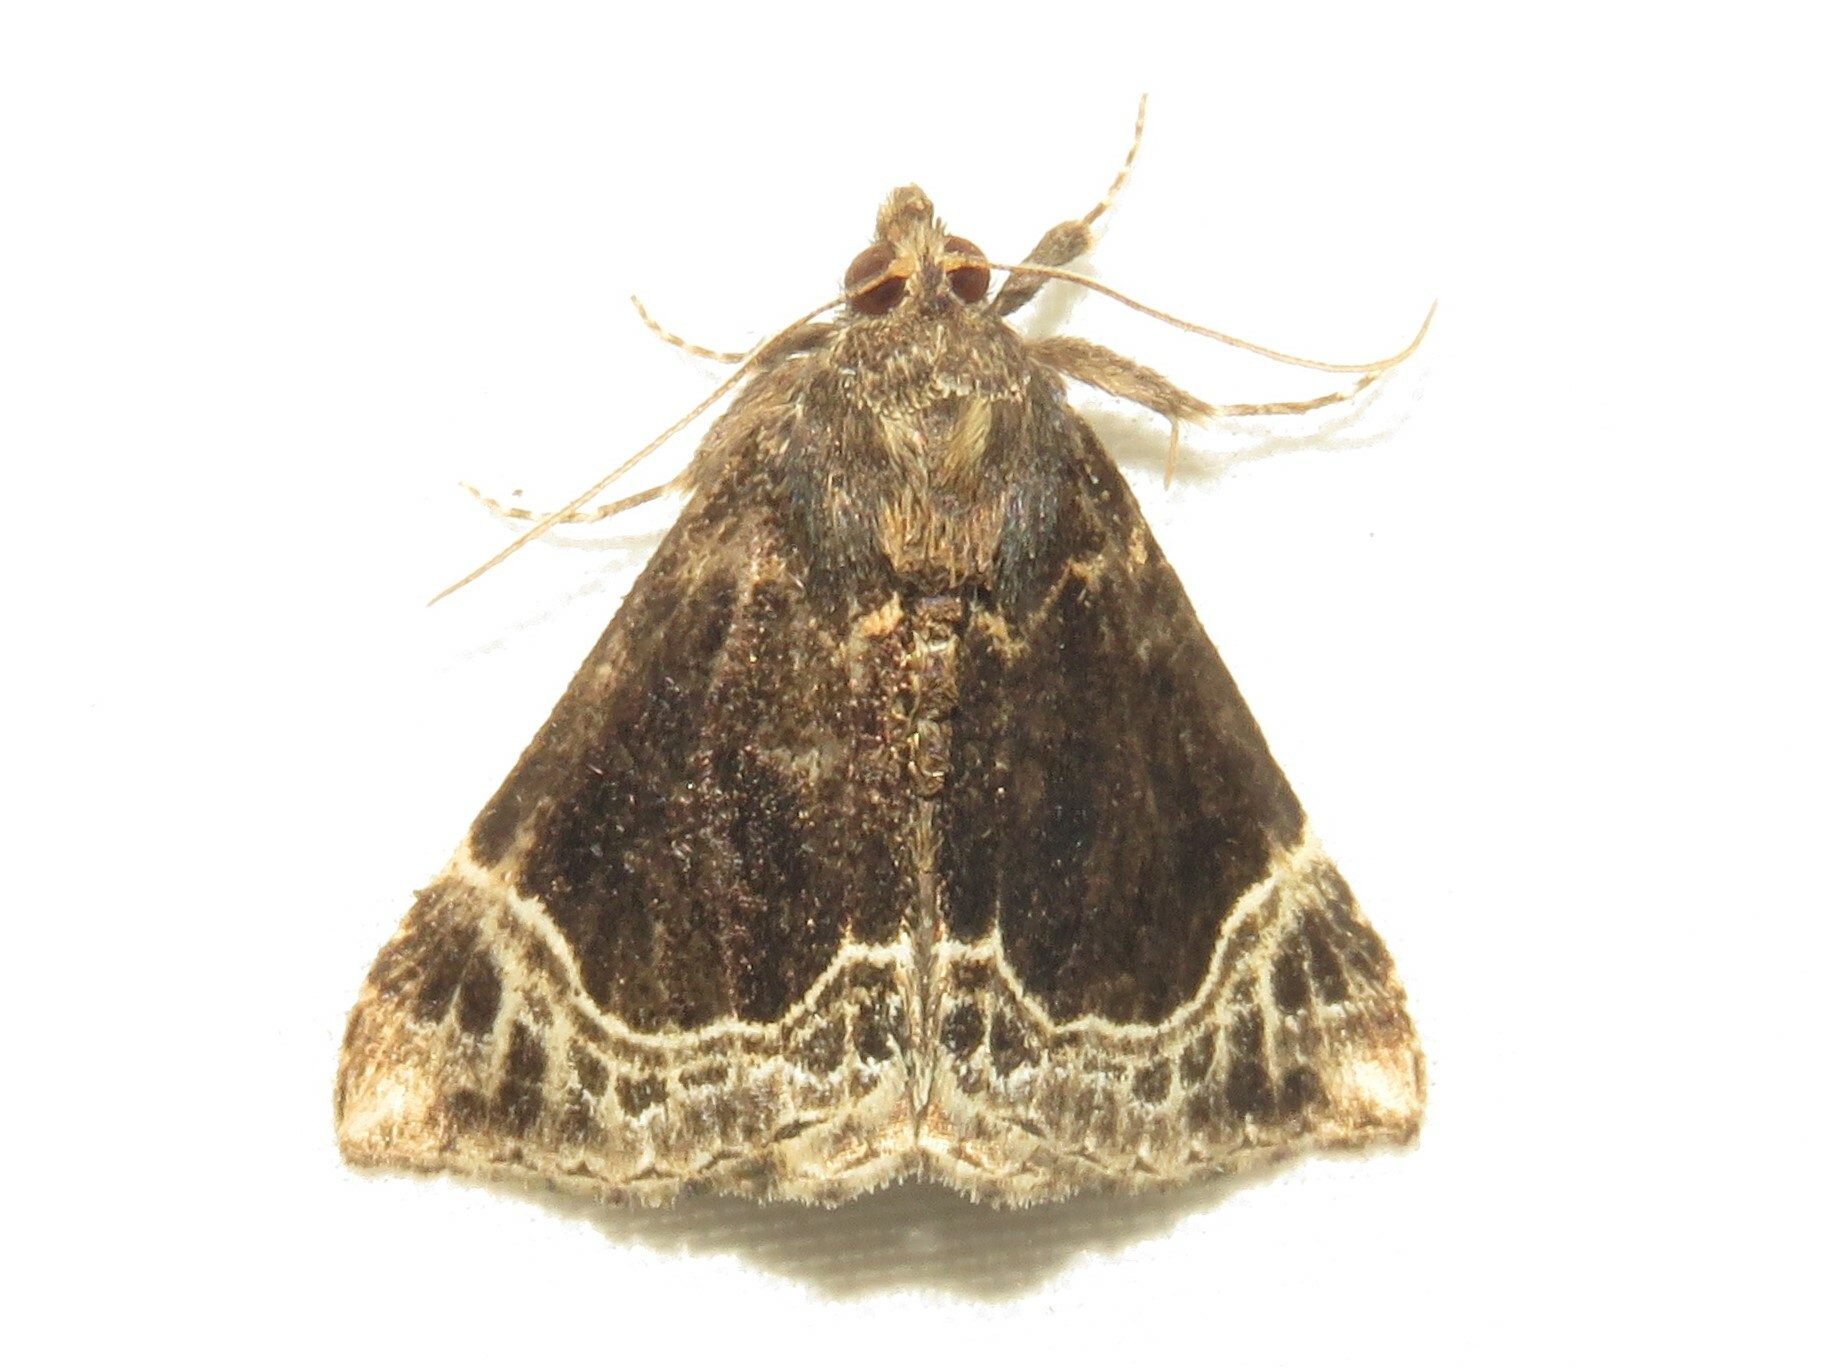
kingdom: Animalia
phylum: Arthropoda
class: Insecta
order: Lepidoptera
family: Erebidae
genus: Hypena
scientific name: Hypena abalienalis
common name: White-lined snout
